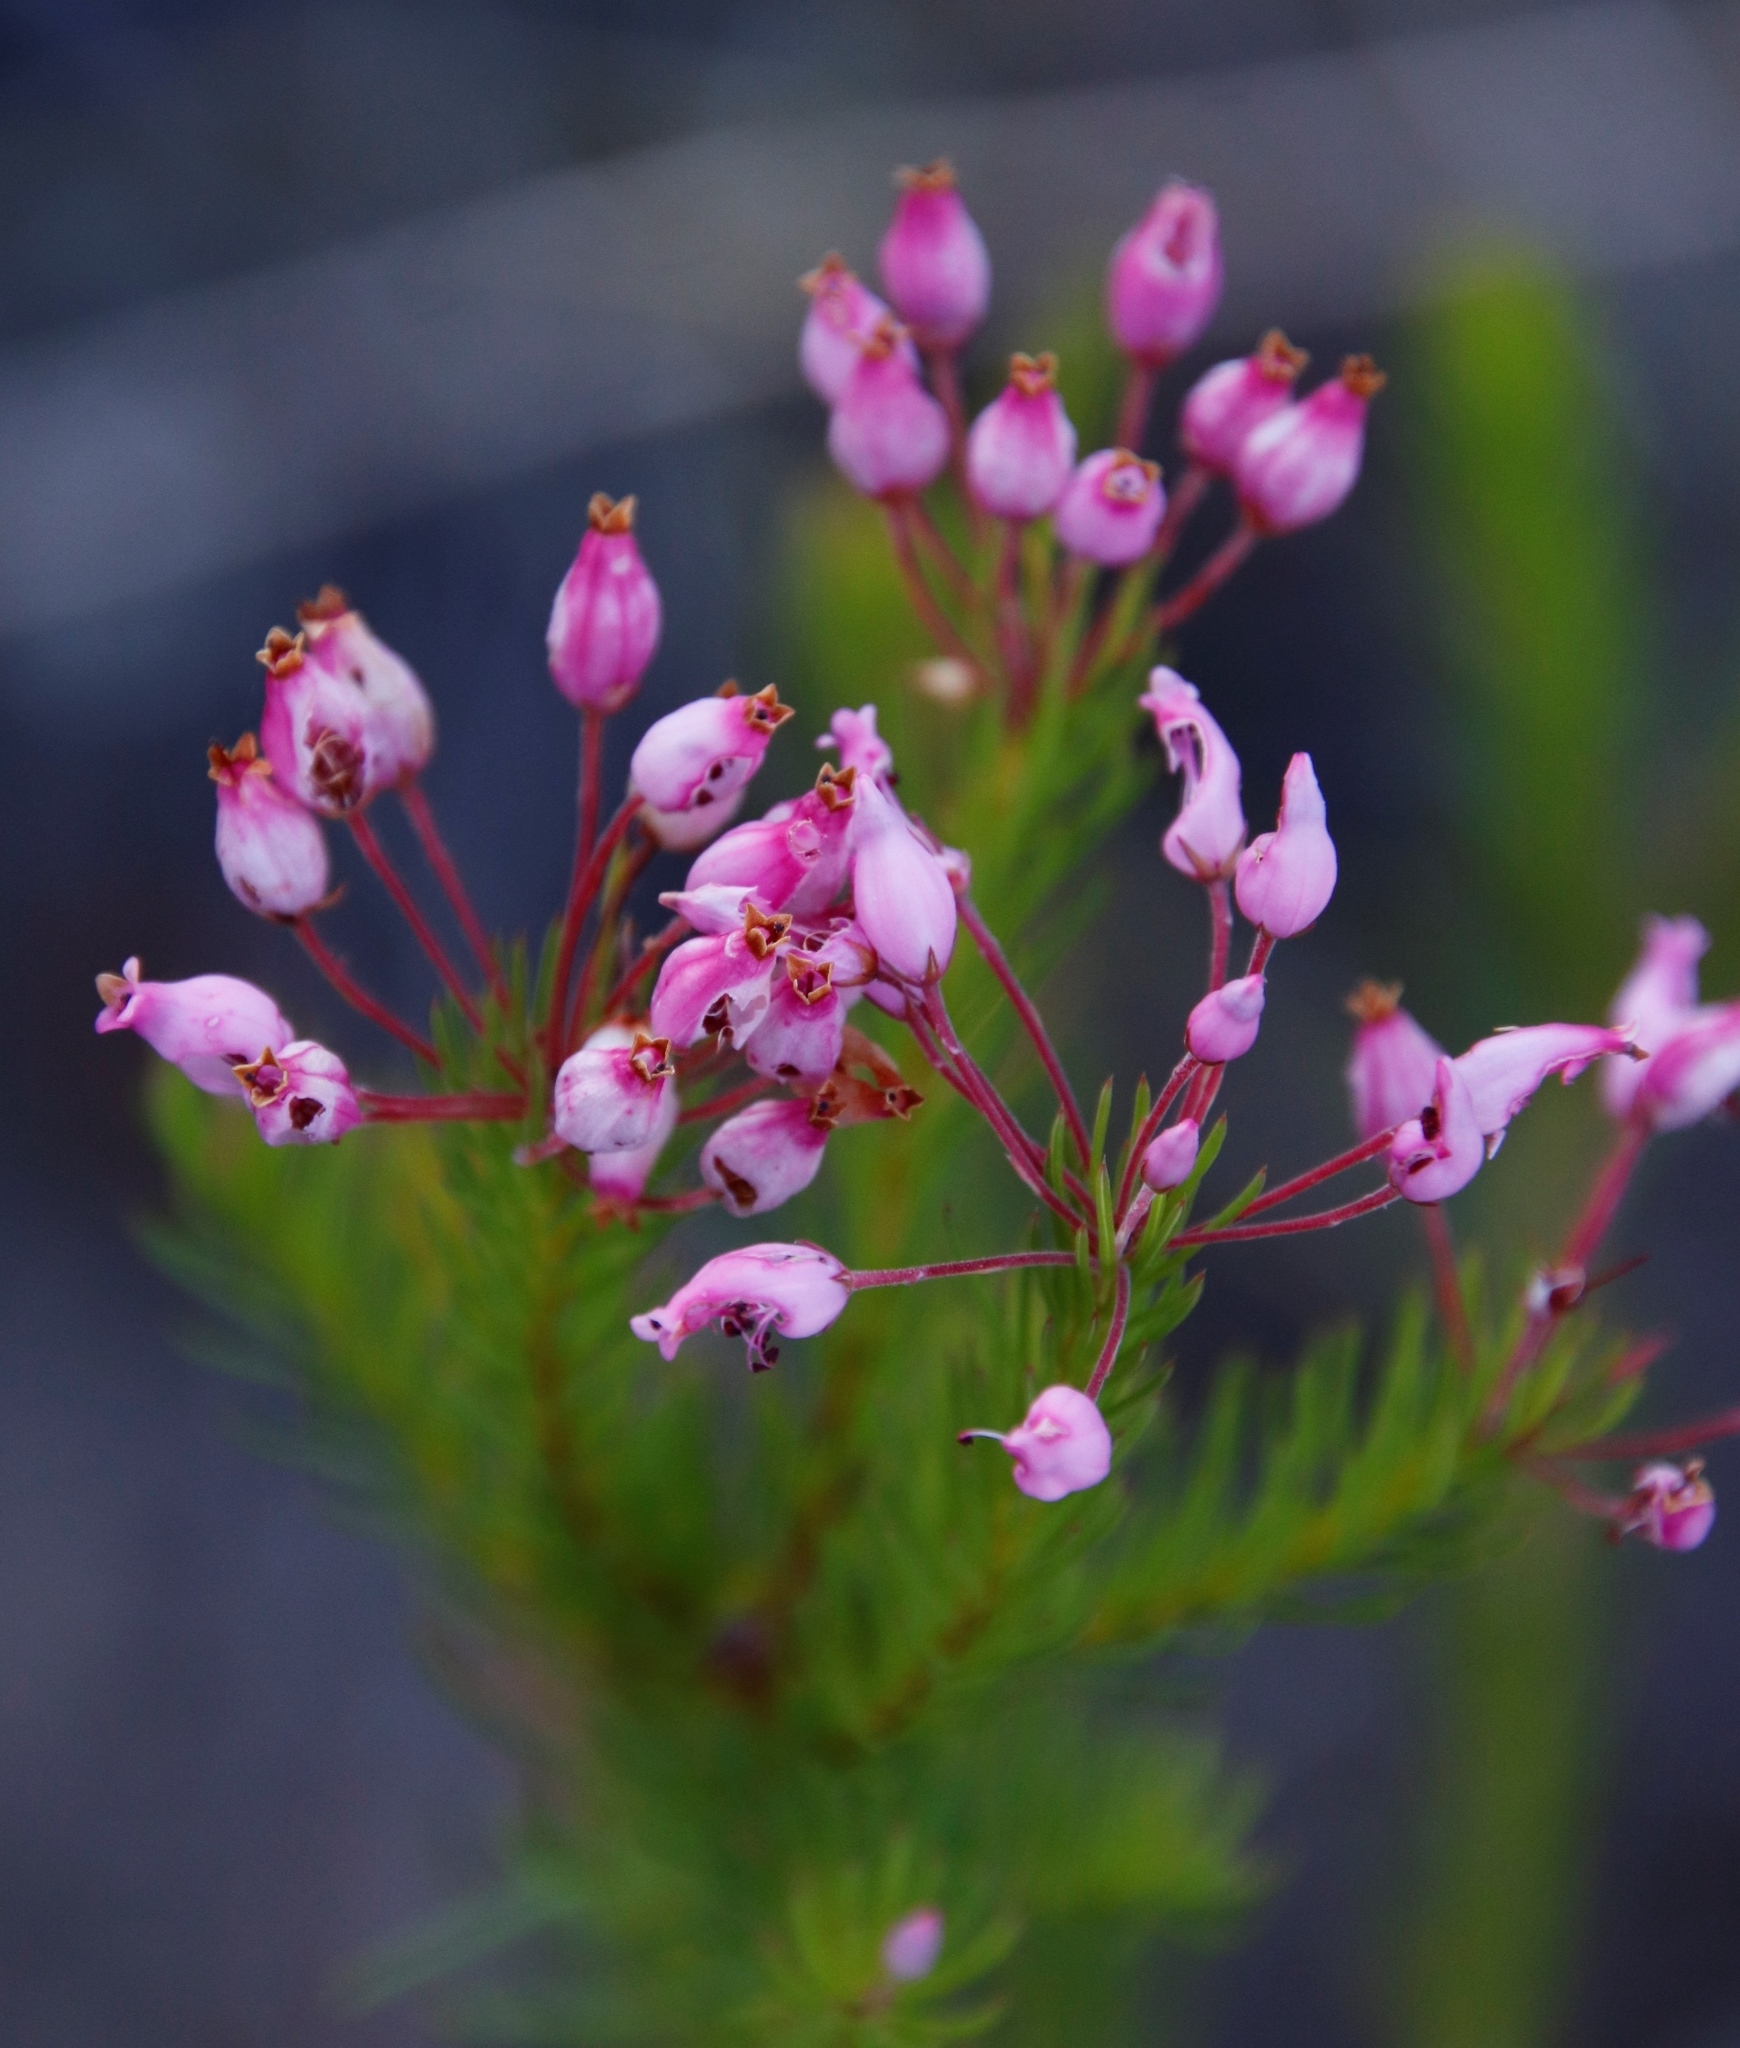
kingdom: Plantae
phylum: Tracheophyta
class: Magnoliopsida
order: Ericales
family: Ericaceae
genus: Erica
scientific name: Erica inflata
